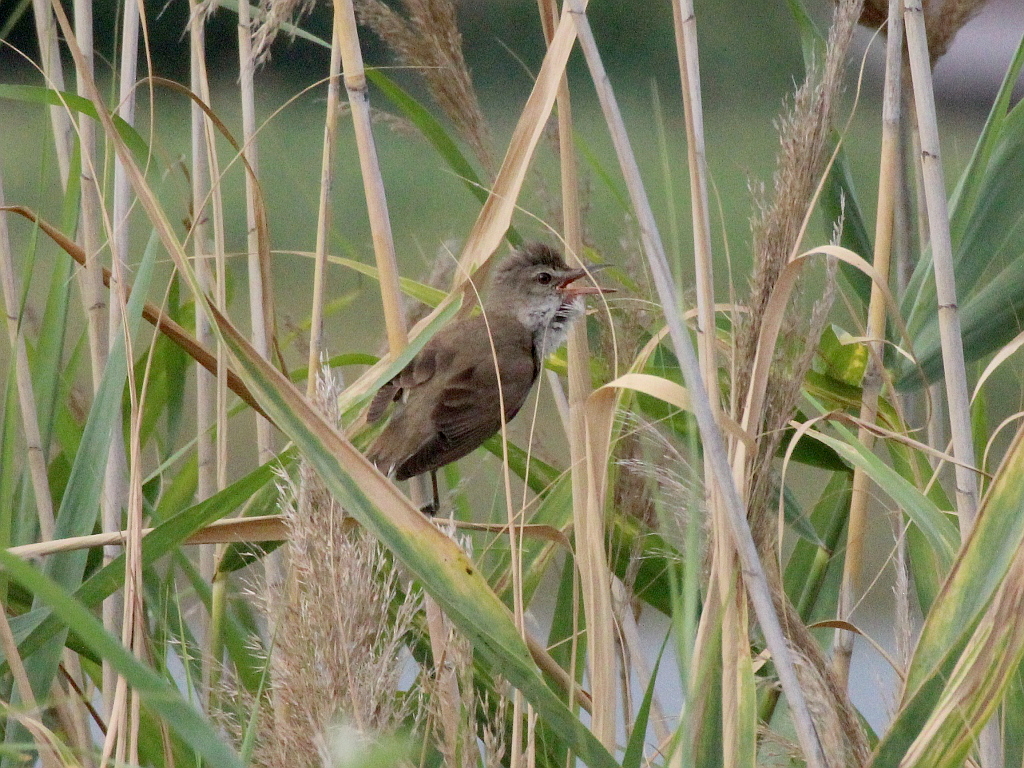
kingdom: Animalia
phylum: Chordata
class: Aves
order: Passeriformes
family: Acrocephalidae
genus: Acrocephalus
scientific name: Acrocephalus arundinaceus
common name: Great reed warbler
